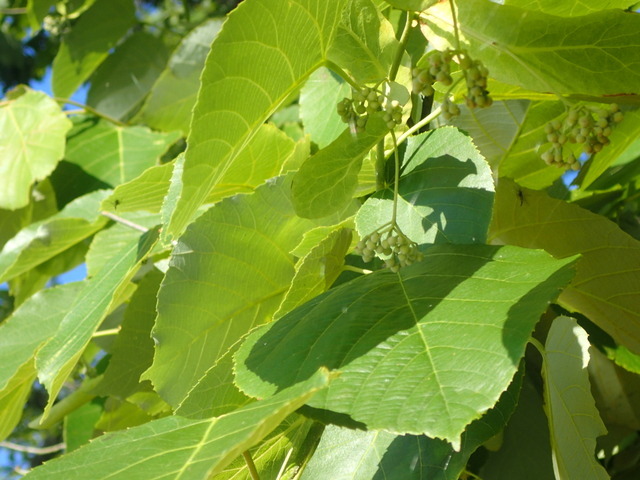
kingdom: Plantae
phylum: Tracheophyta
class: Magnoliopsida
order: Malvales
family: Malvaceae
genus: Tilia
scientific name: Tilia americana
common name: Basswood
